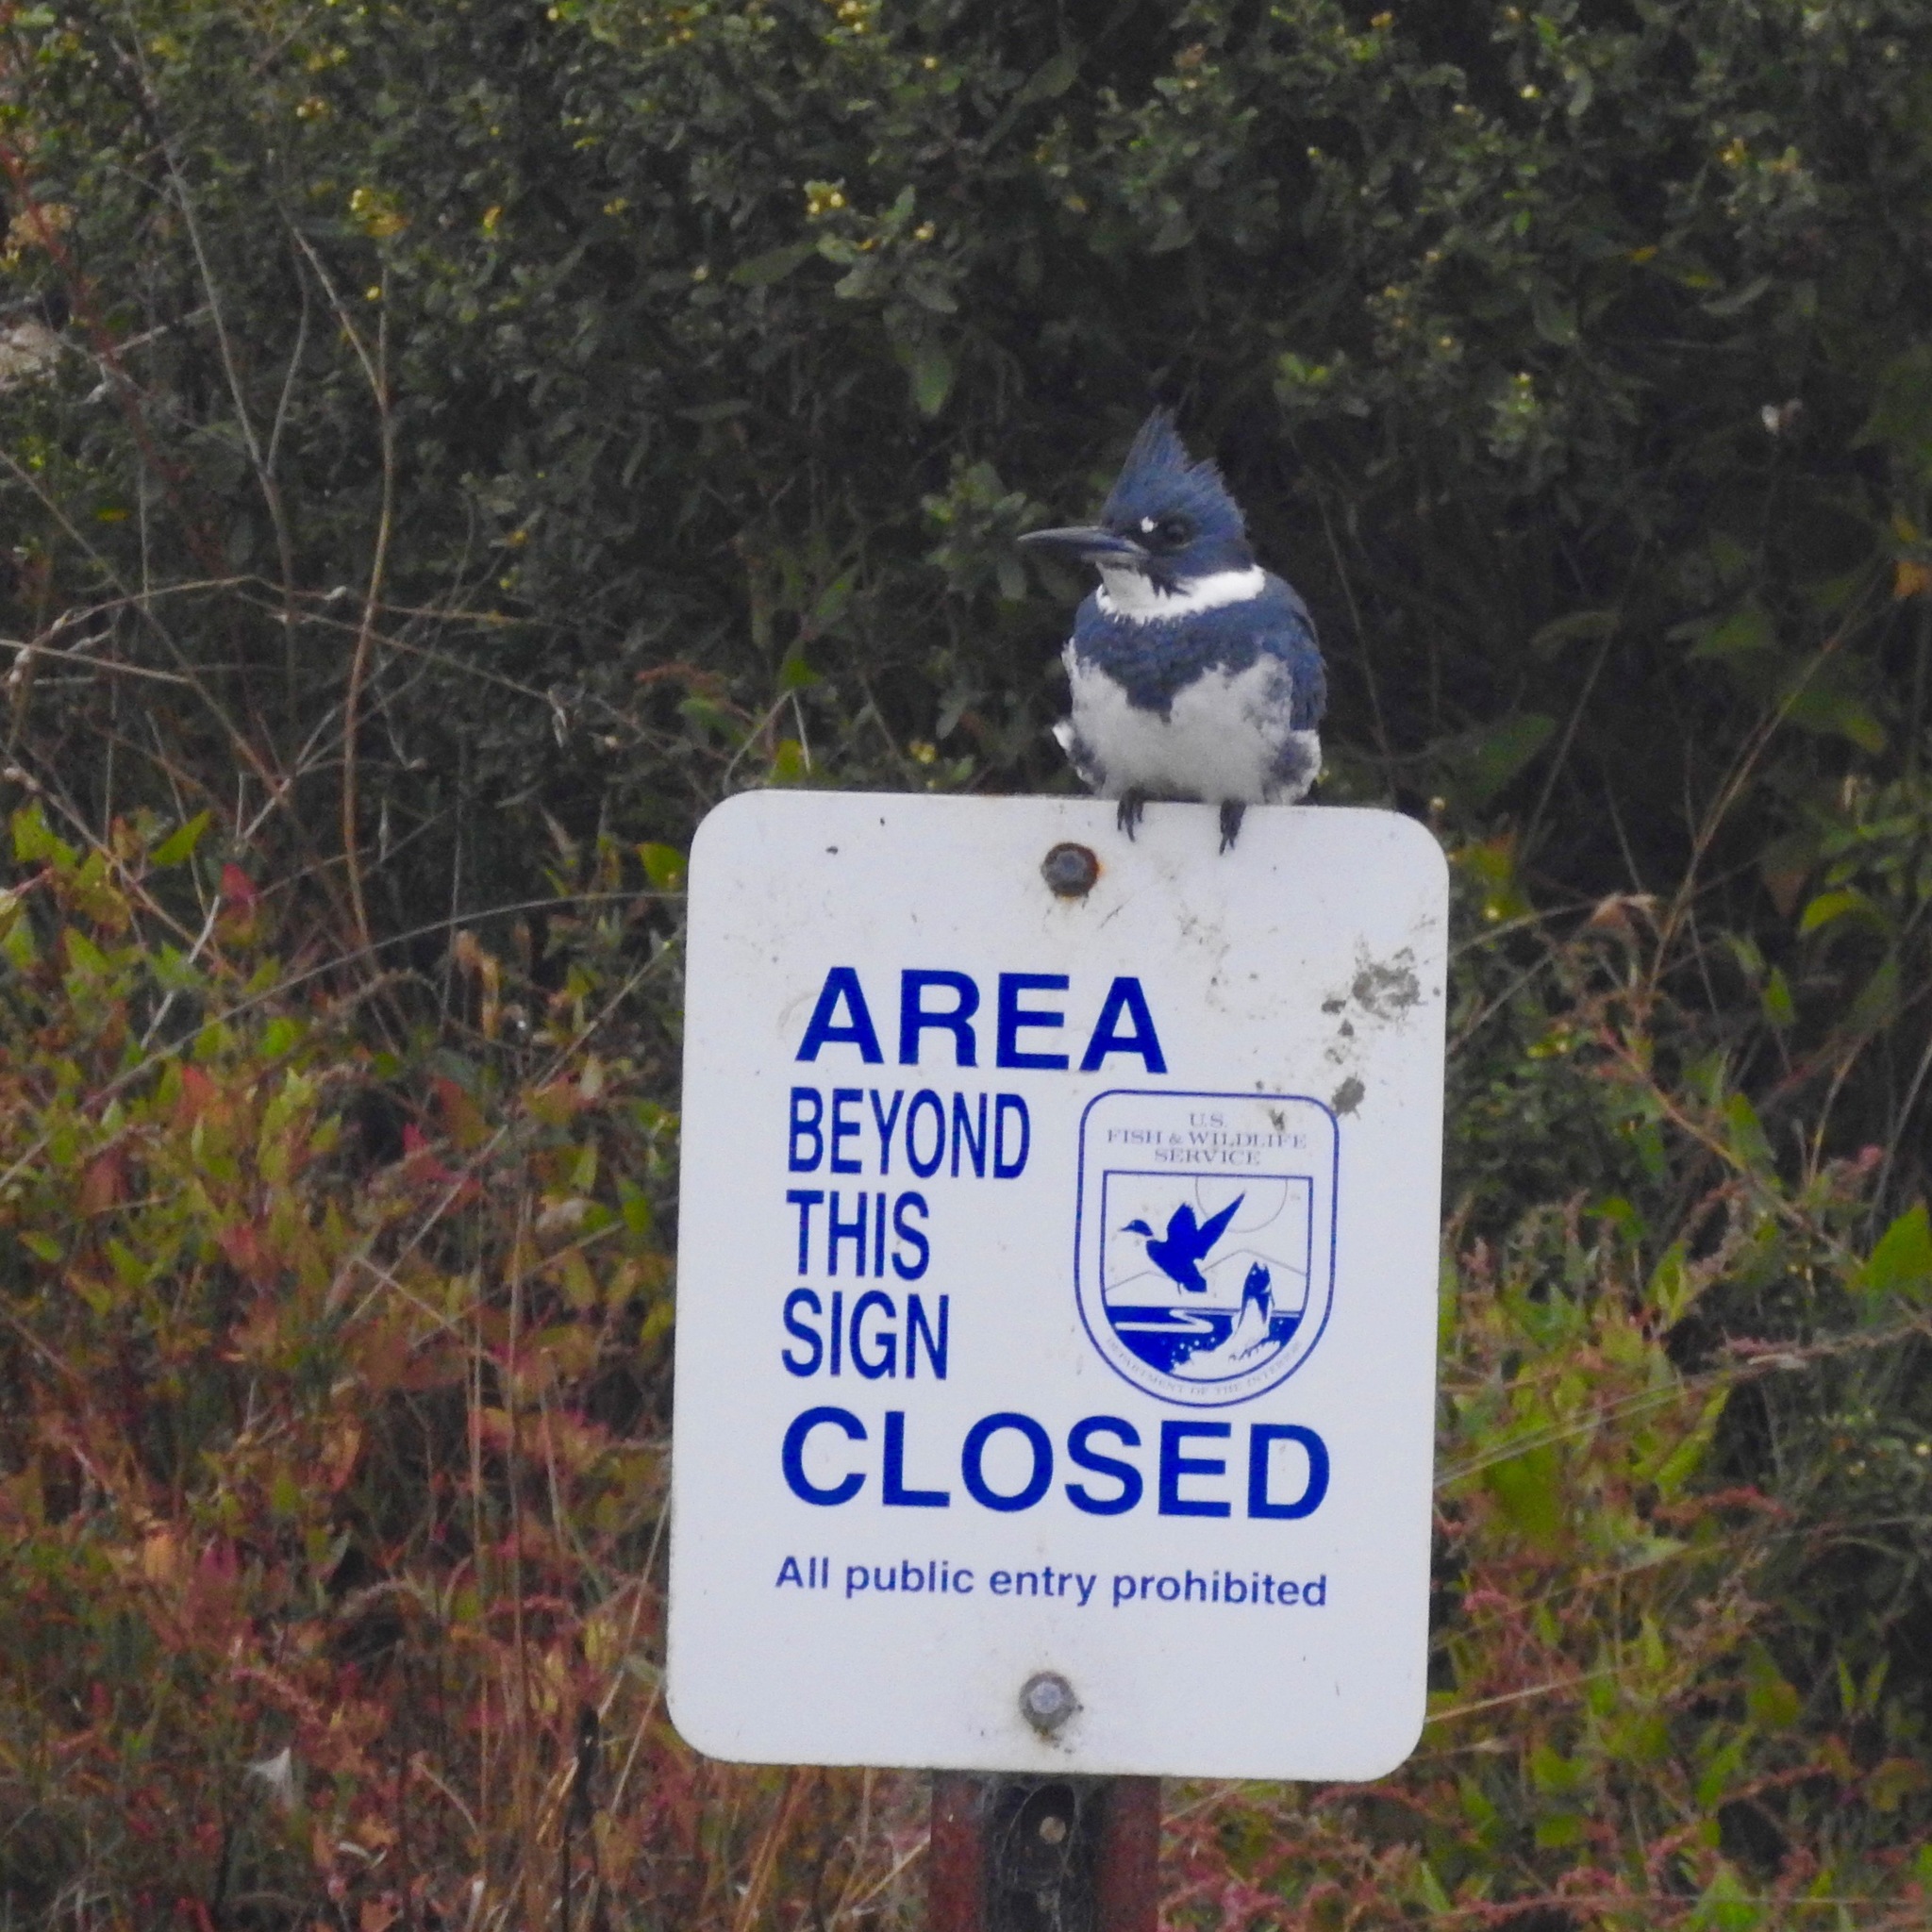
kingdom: Animalia
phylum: Chordata
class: Aves
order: Coraciiformes
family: Alcedinidae
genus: Megaceryle
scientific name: Megaceryle alcyon
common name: Belted kingfisher
